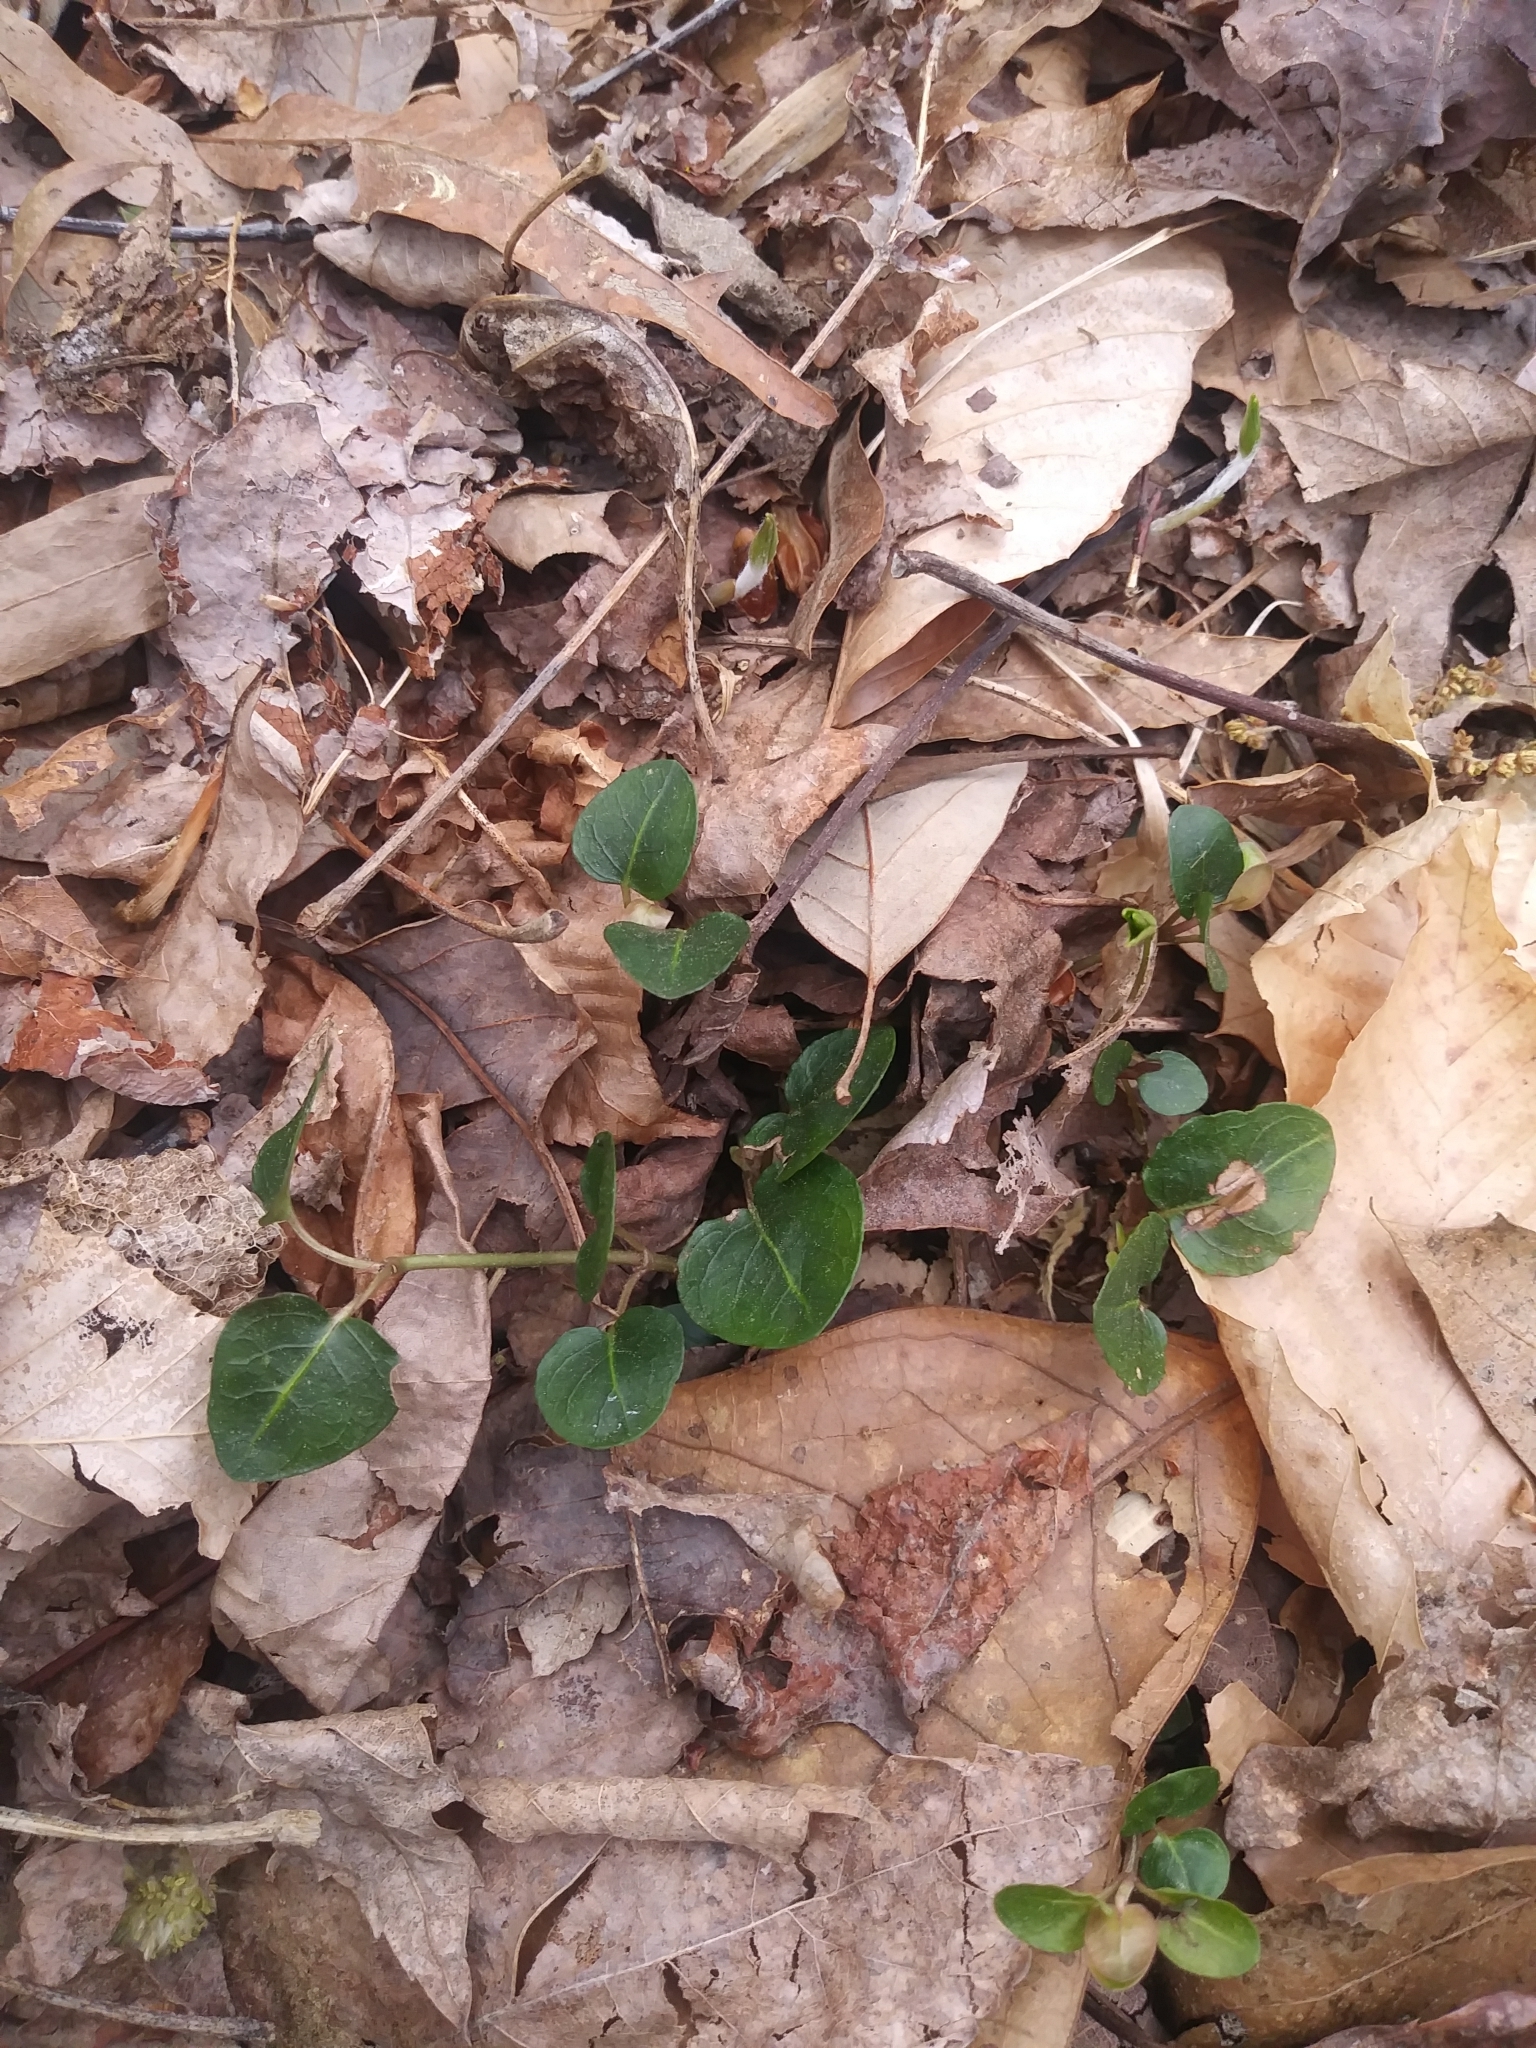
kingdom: Plantae
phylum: Tracheophyta
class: Magnoliopsida
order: Gentianales
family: Rubiaceae
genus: Mitchella
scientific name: Mitchella repens
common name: Partridge-berry
